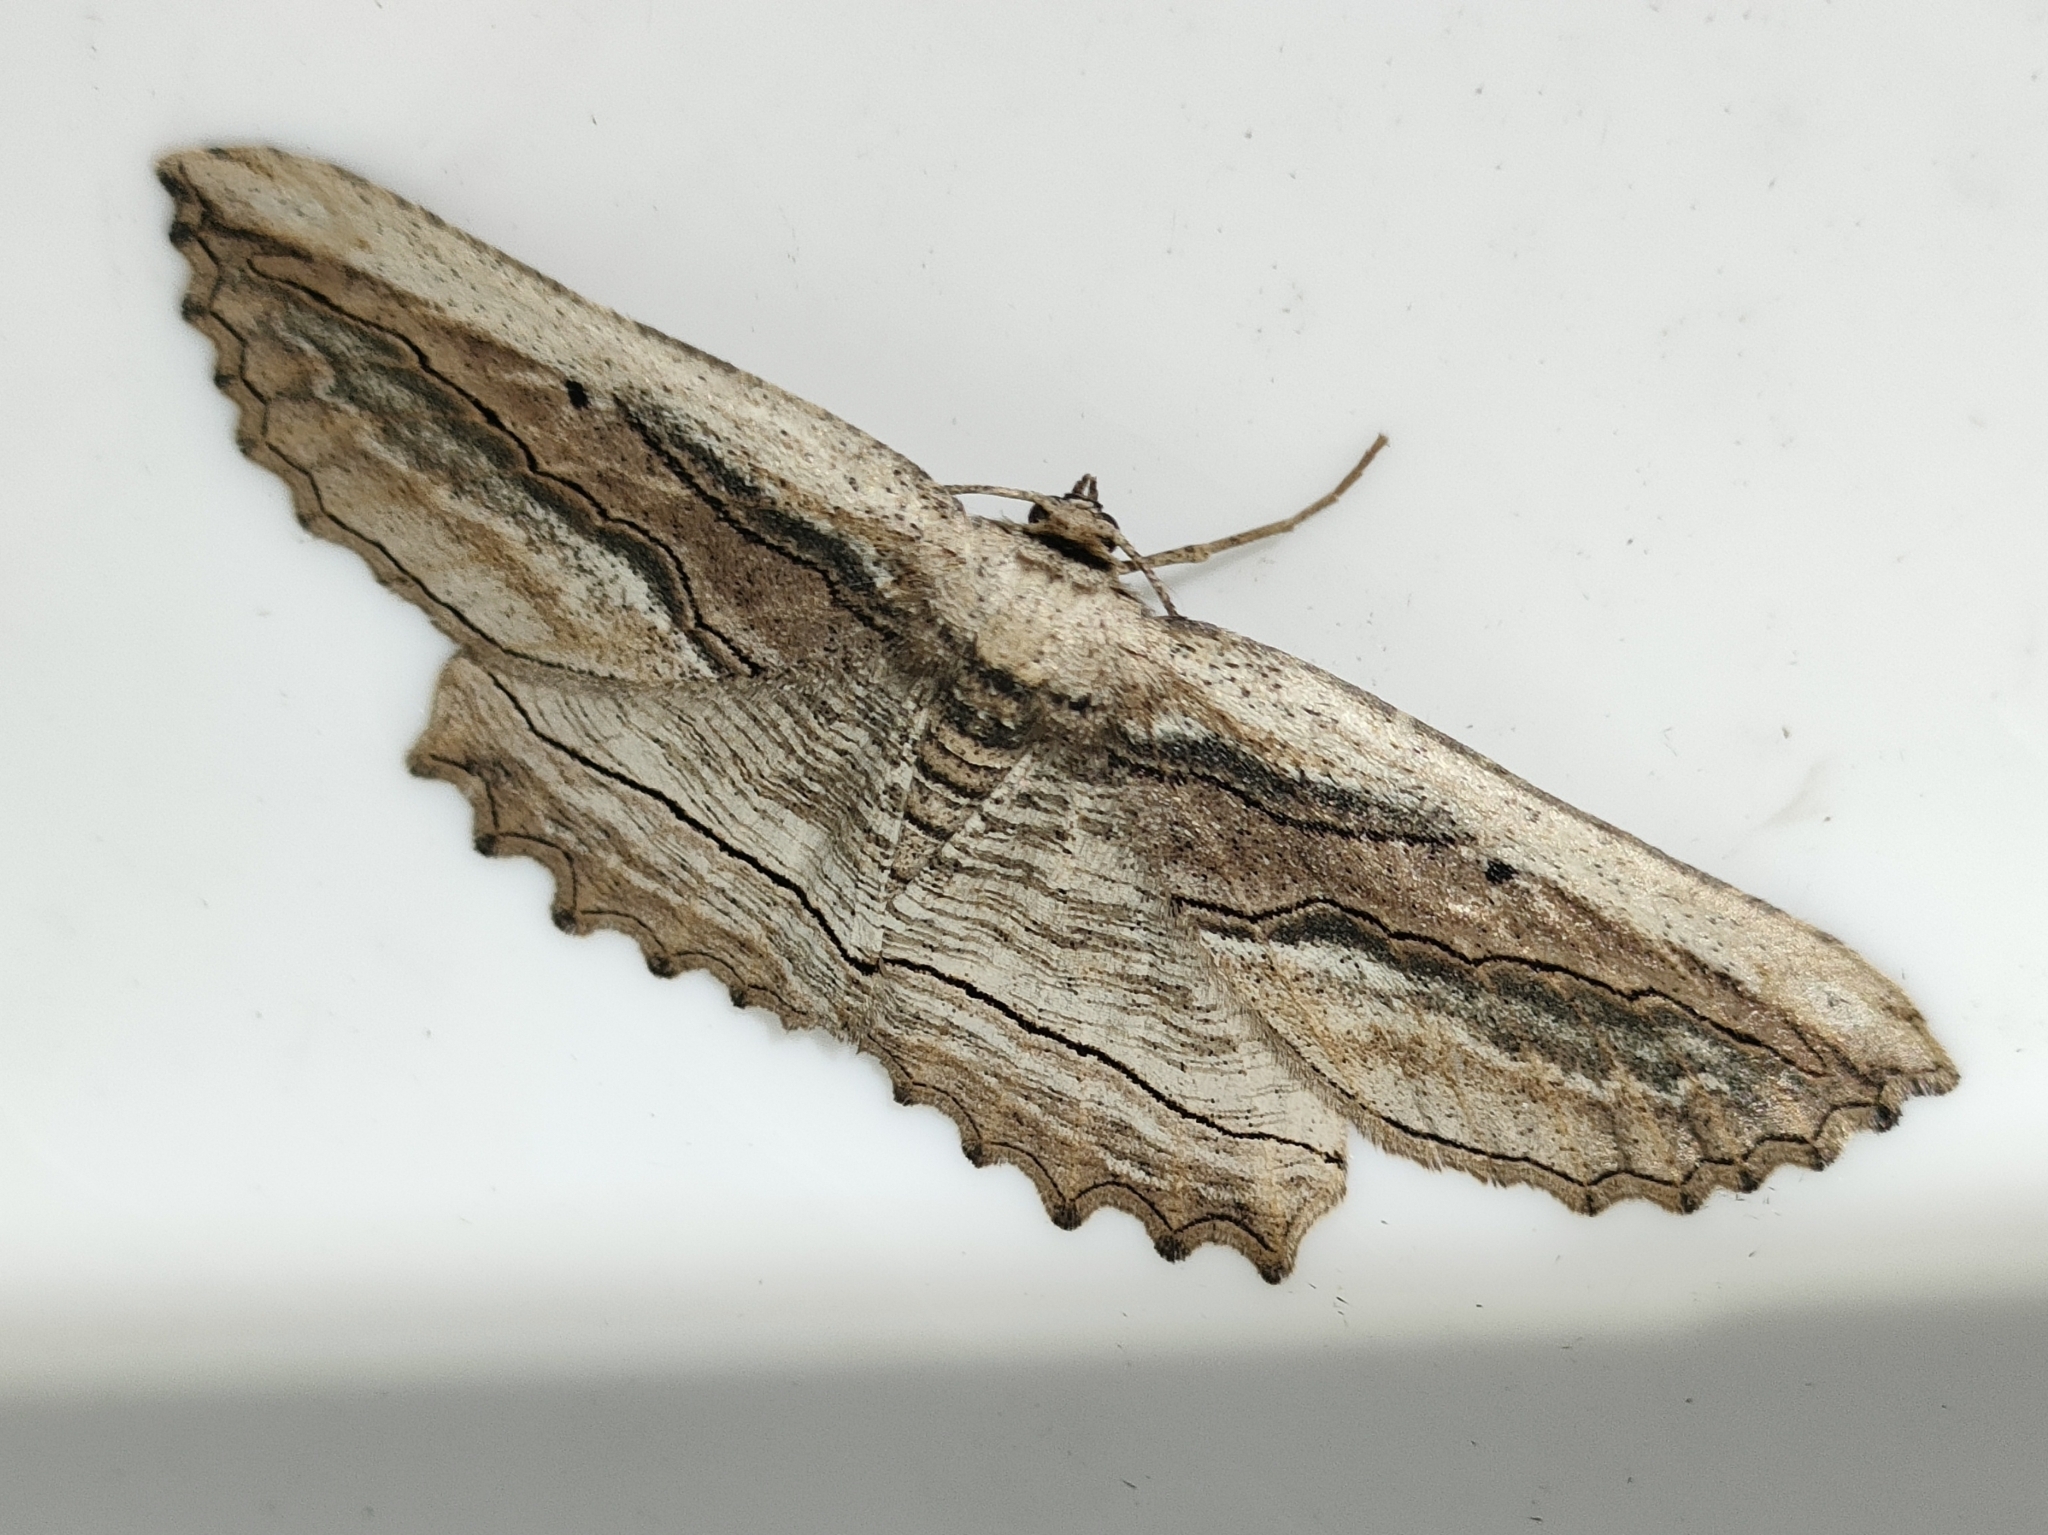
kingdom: Animalia
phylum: Arthropoda
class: Insecta
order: Lepidoptera
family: Geometridae
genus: Menophra
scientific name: Menophra nycthemeraria
